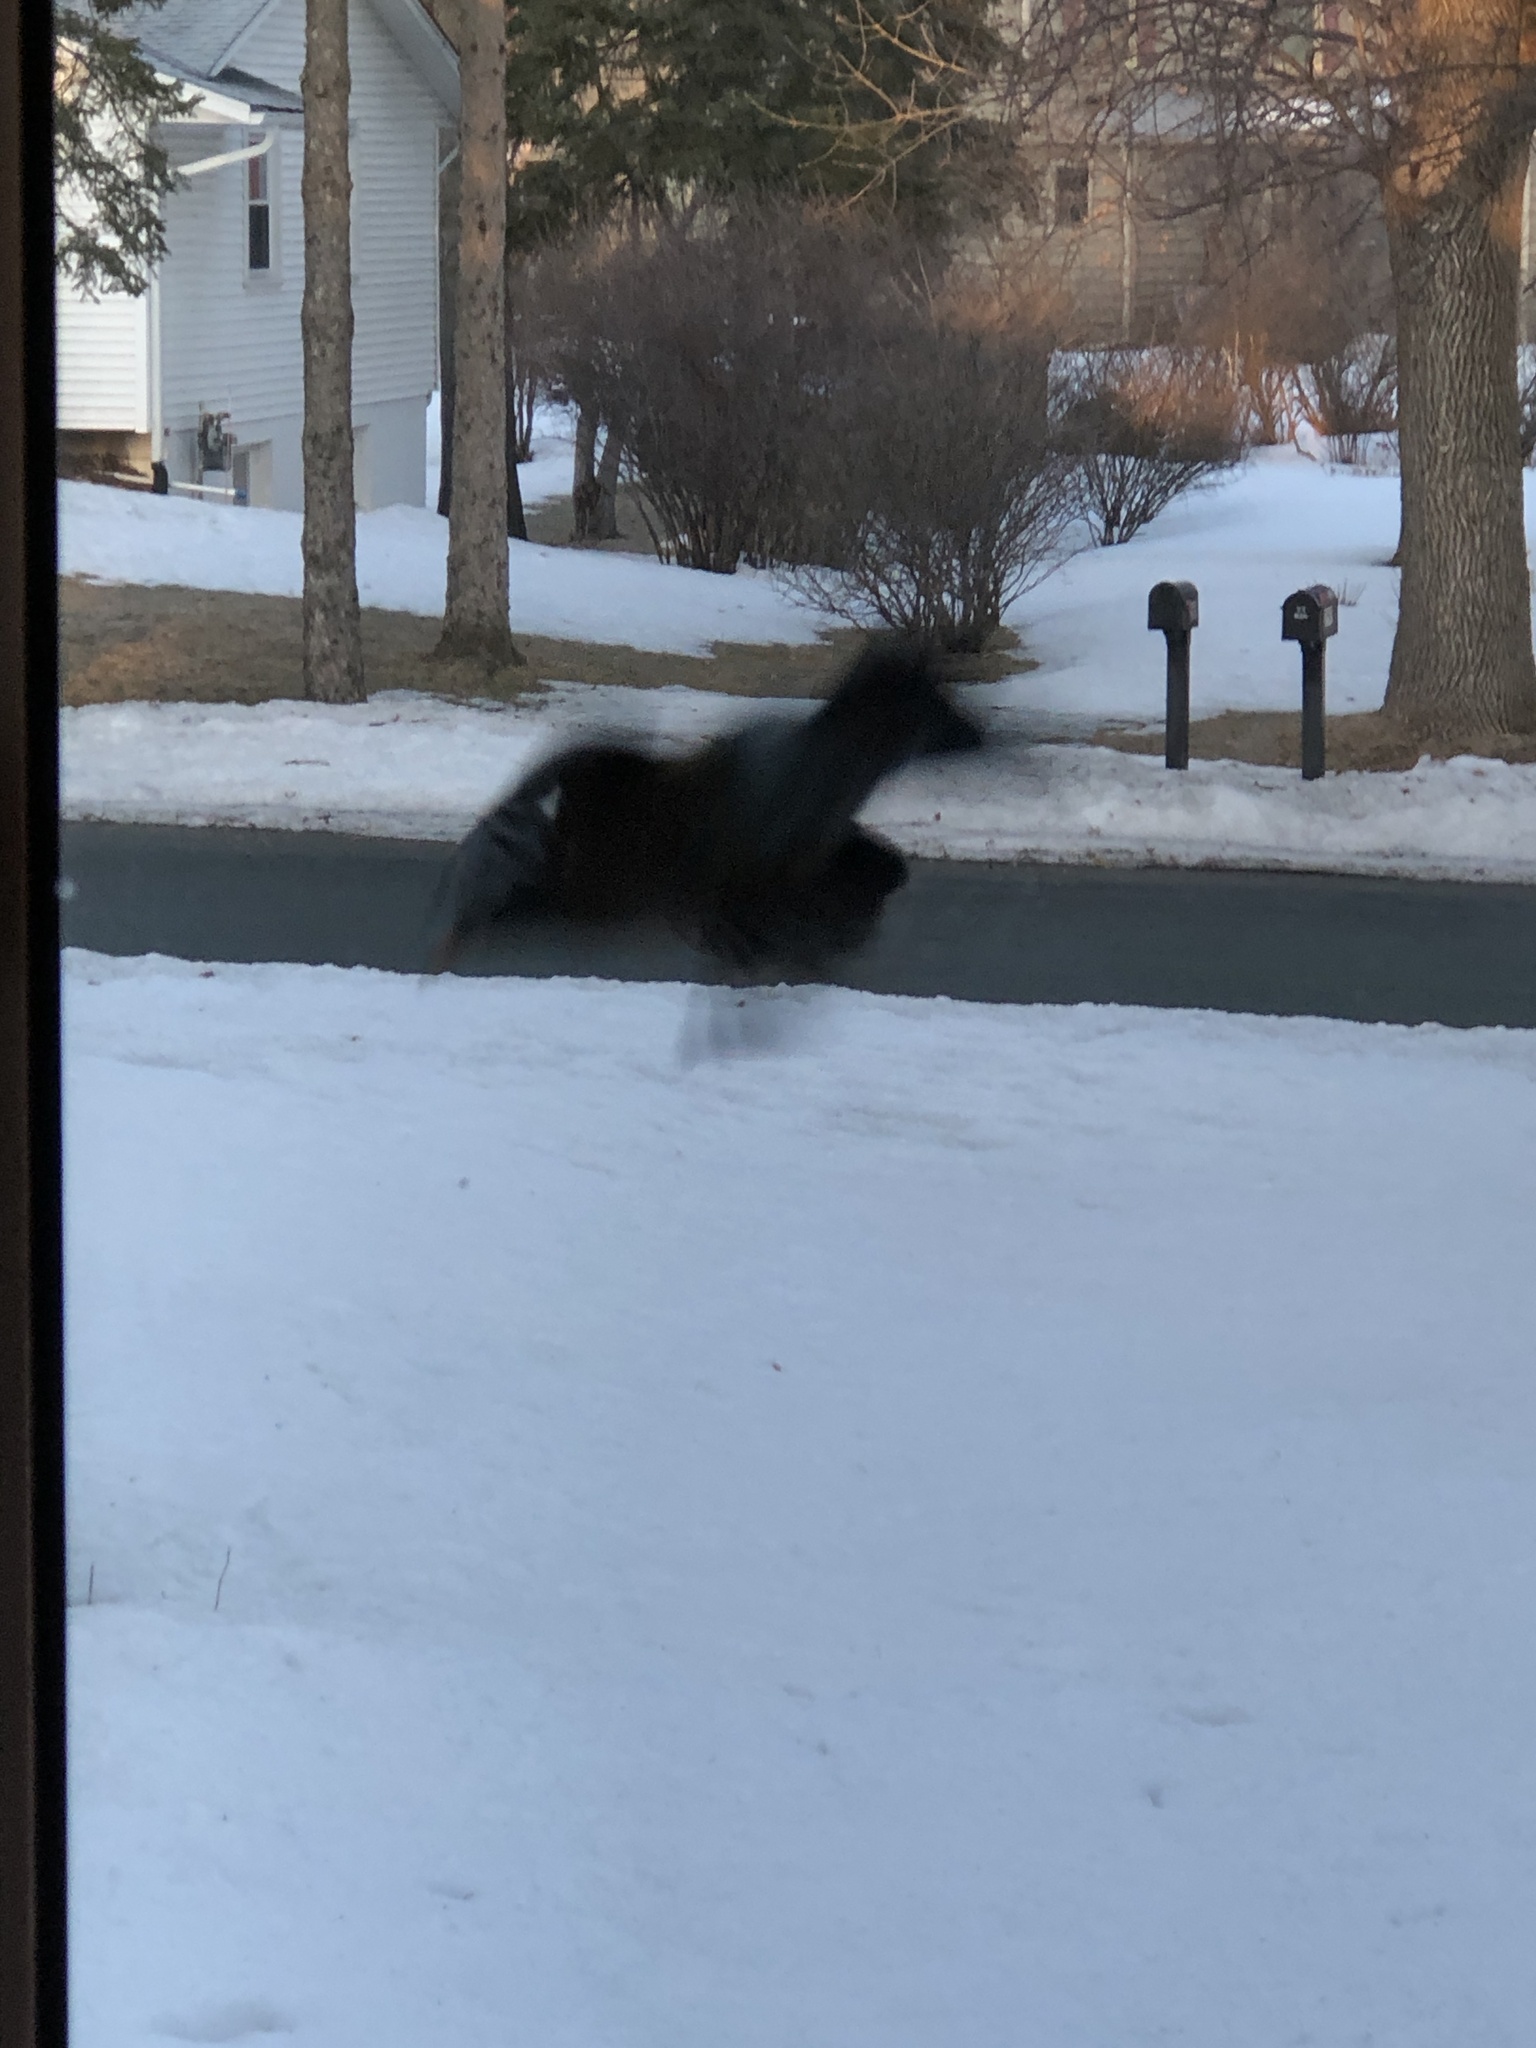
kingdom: Animalia
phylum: Chordata
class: Aves
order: Passeriformes
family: Turdidae
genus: Turdus
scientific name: Turdus migratorius
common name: American robin
